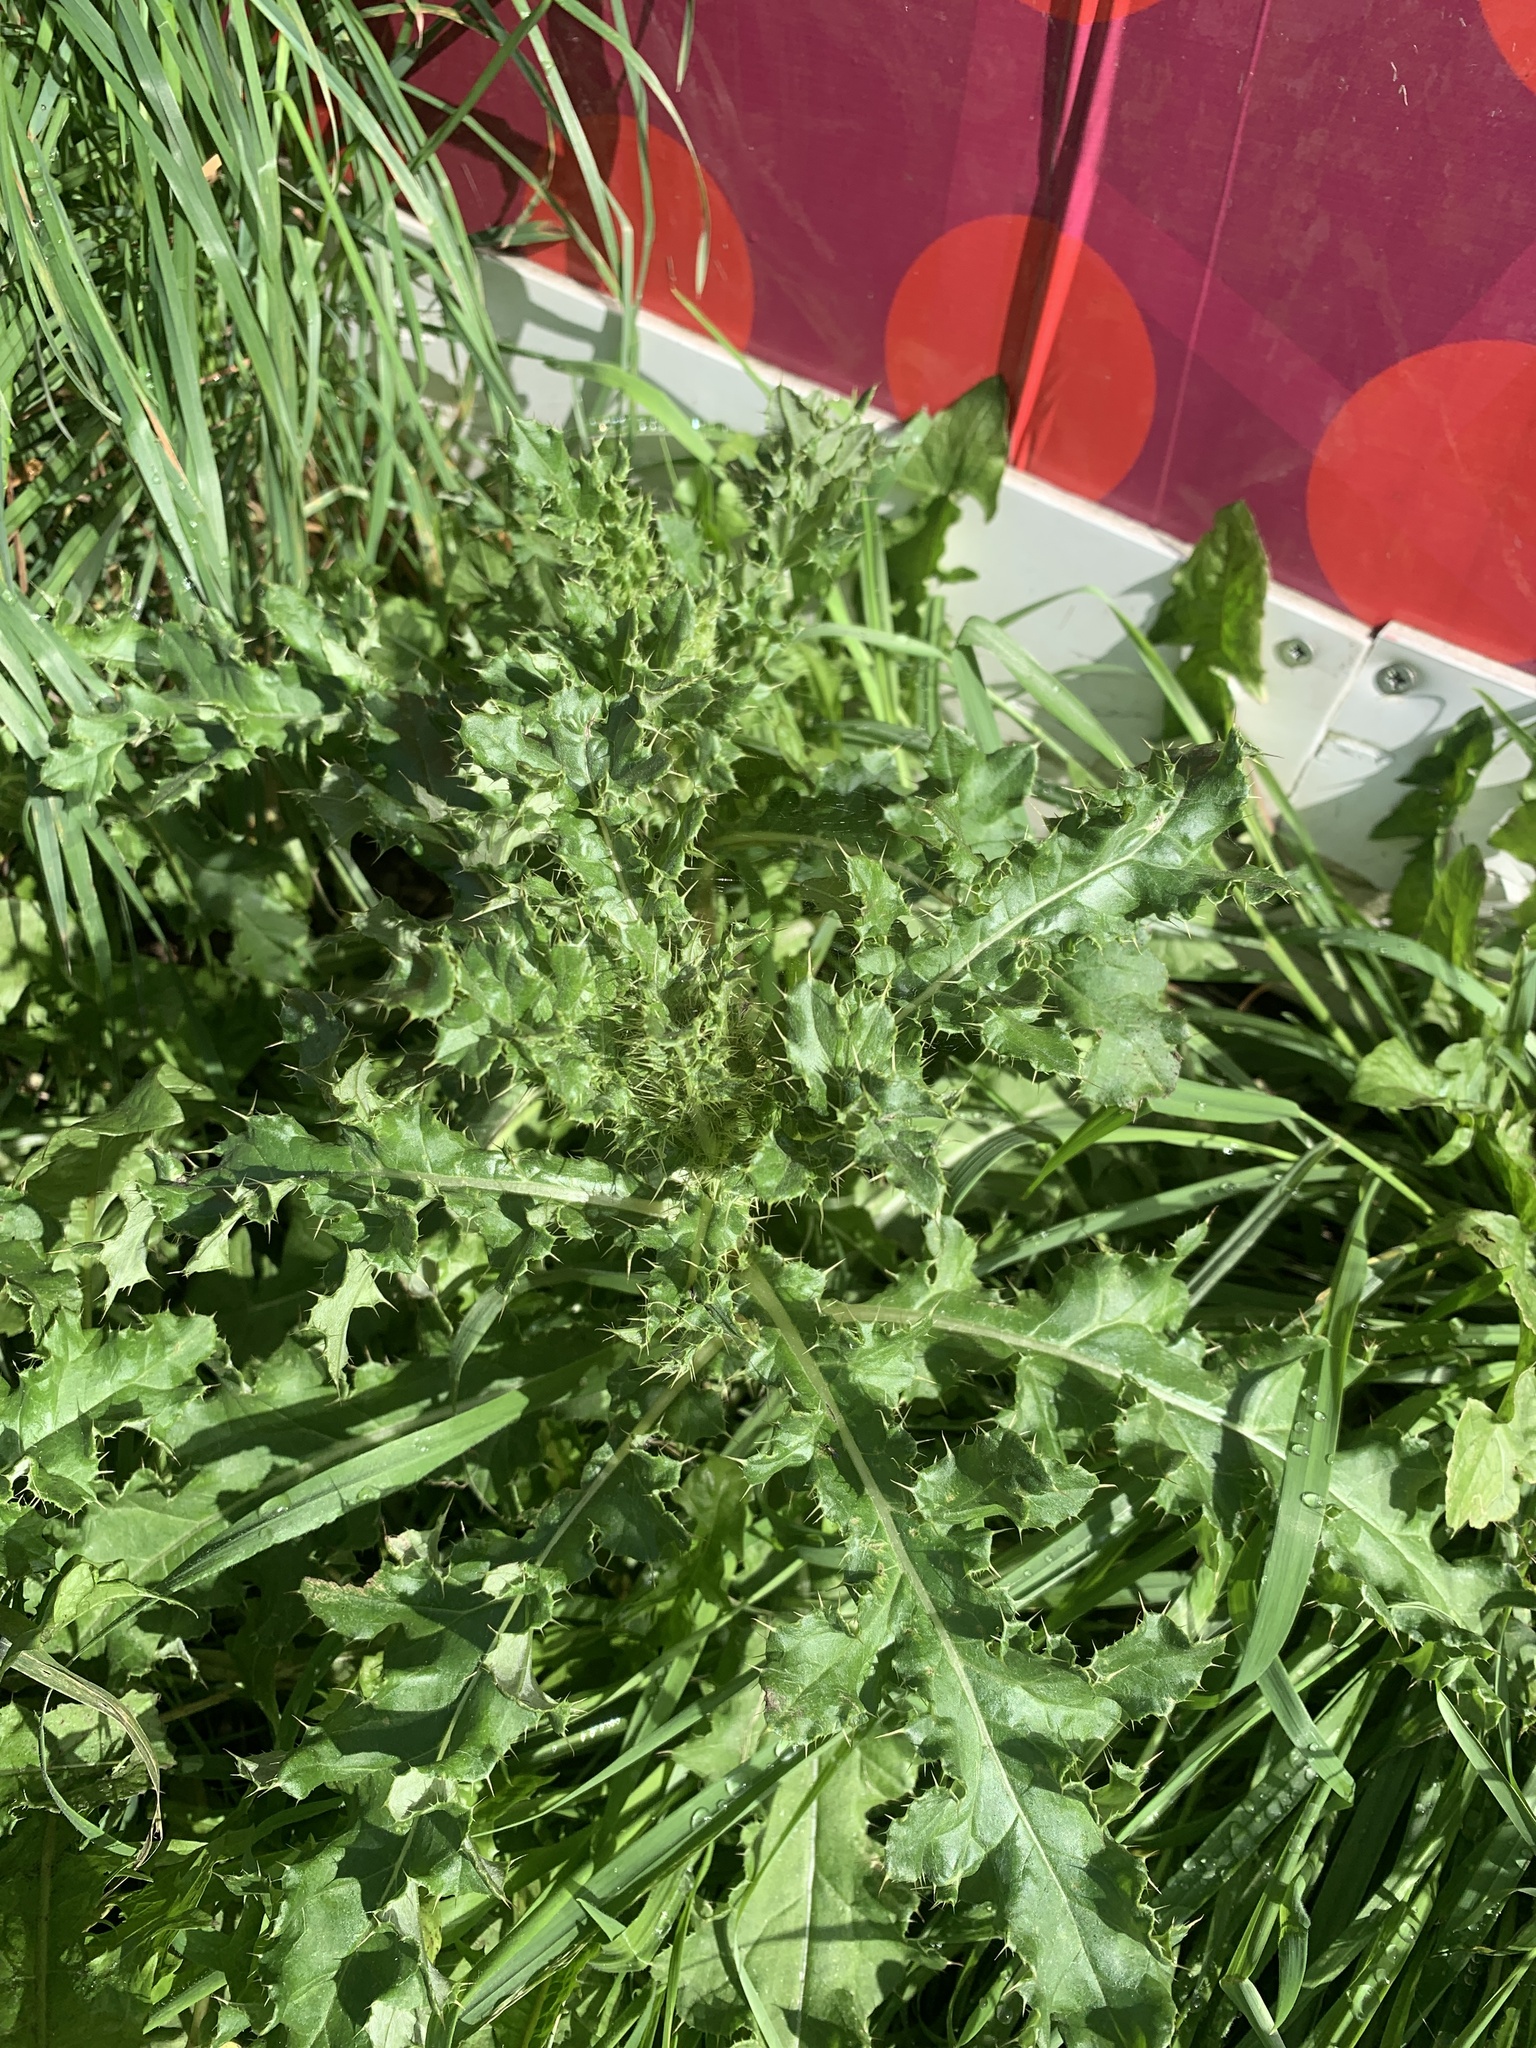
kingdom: Plantae
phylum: Tracheophyta
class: Magnoliopsida
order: Asterales
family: Asteraceae
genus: Cirsium
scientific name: Cirsium arvense
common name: Creeping thistle
